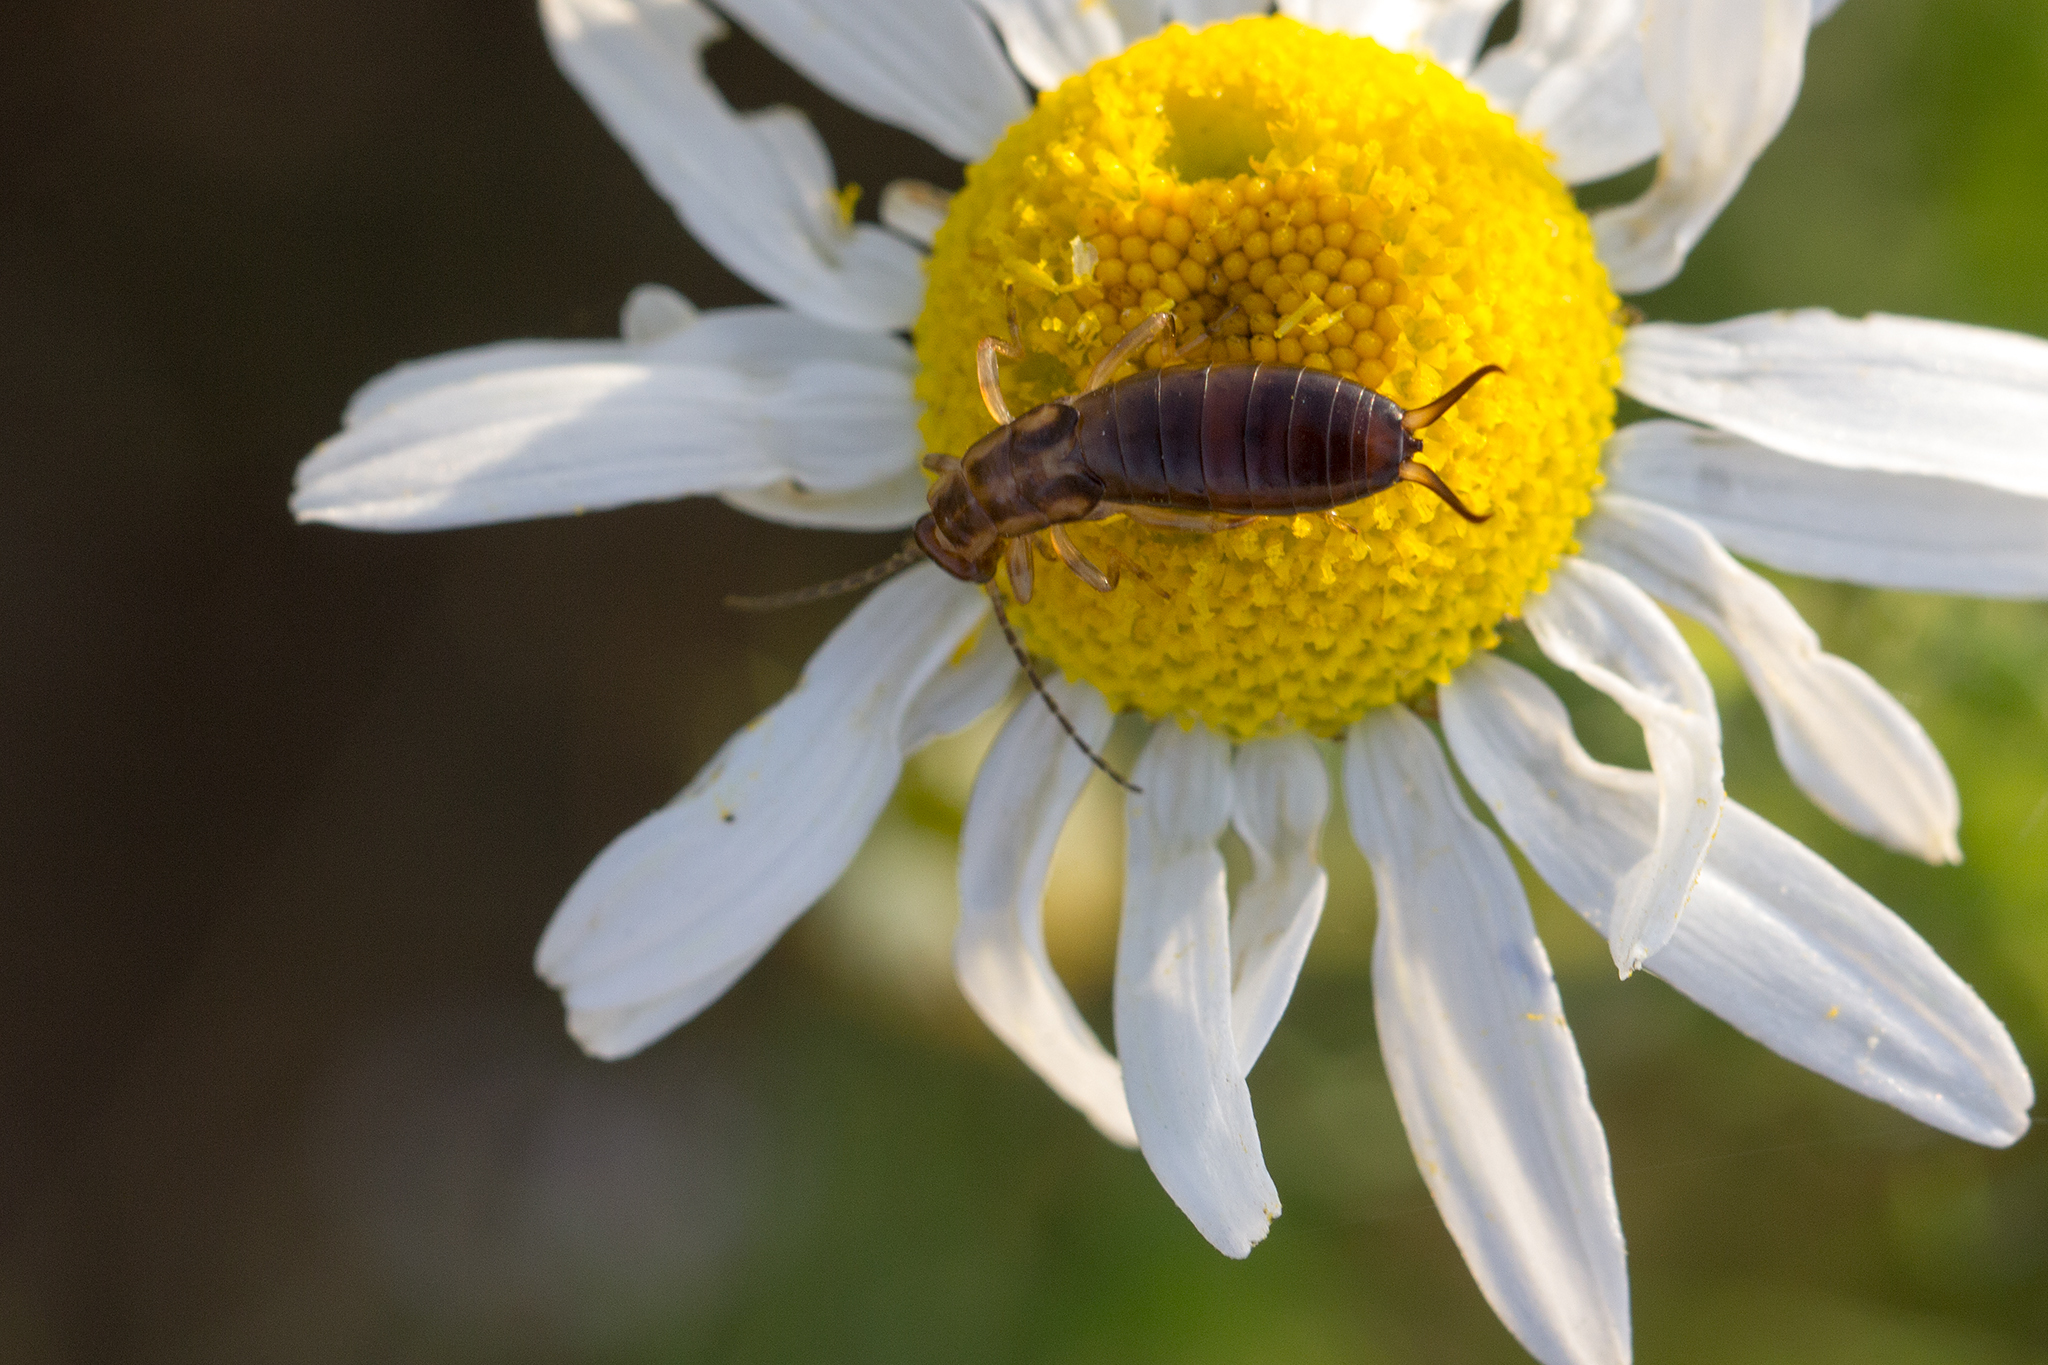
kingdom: Animalia
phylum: Arthropoda
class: Insecta
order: Dermaptera
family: Forficulidae
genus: Forficula
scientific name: Forficula
